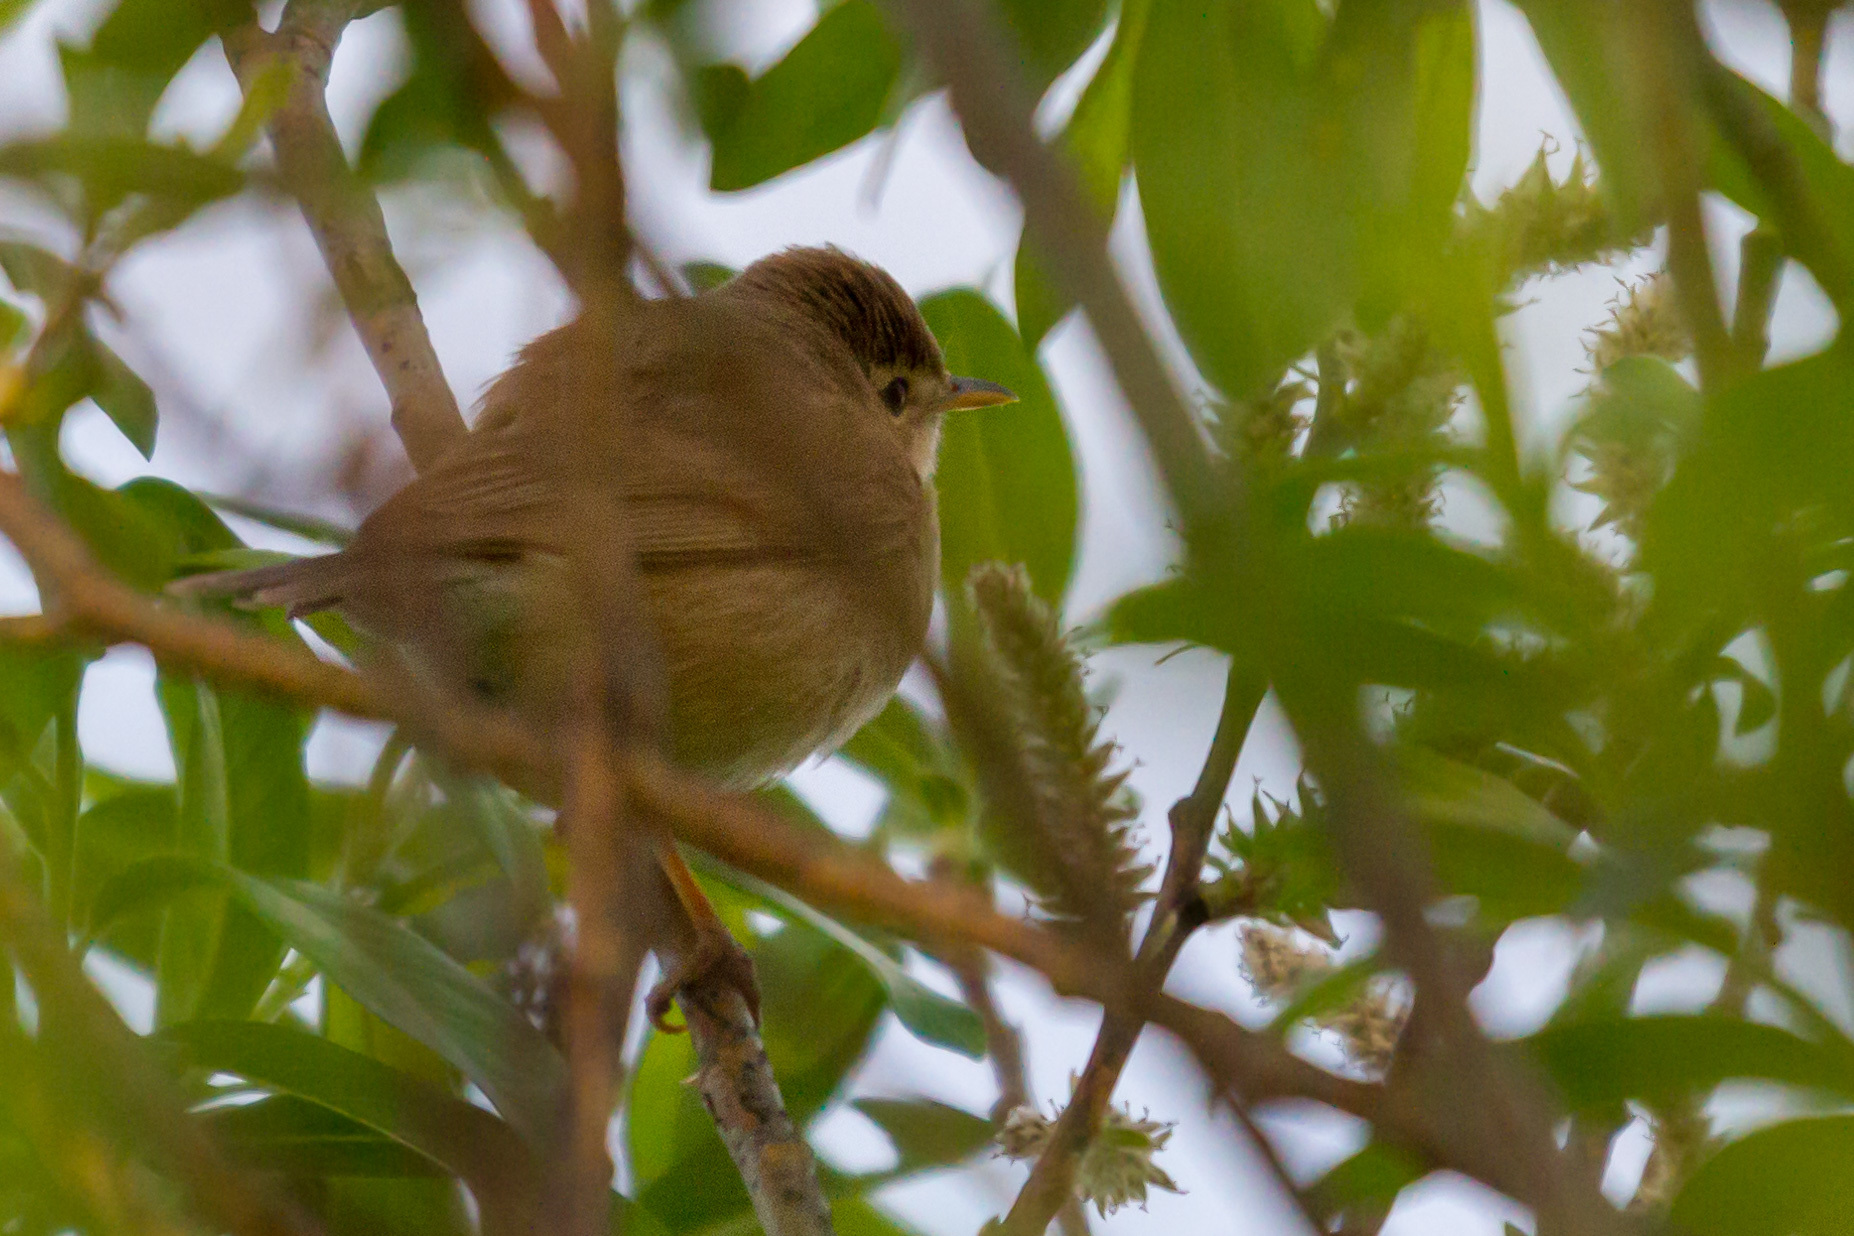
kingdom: Animalia
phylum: Chordata
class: Aves
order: Passeriformes
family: Acrocephalidae
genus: Acrocephalus
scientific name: Acrocephalus dumetorum
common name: Blyth's reed warbler
